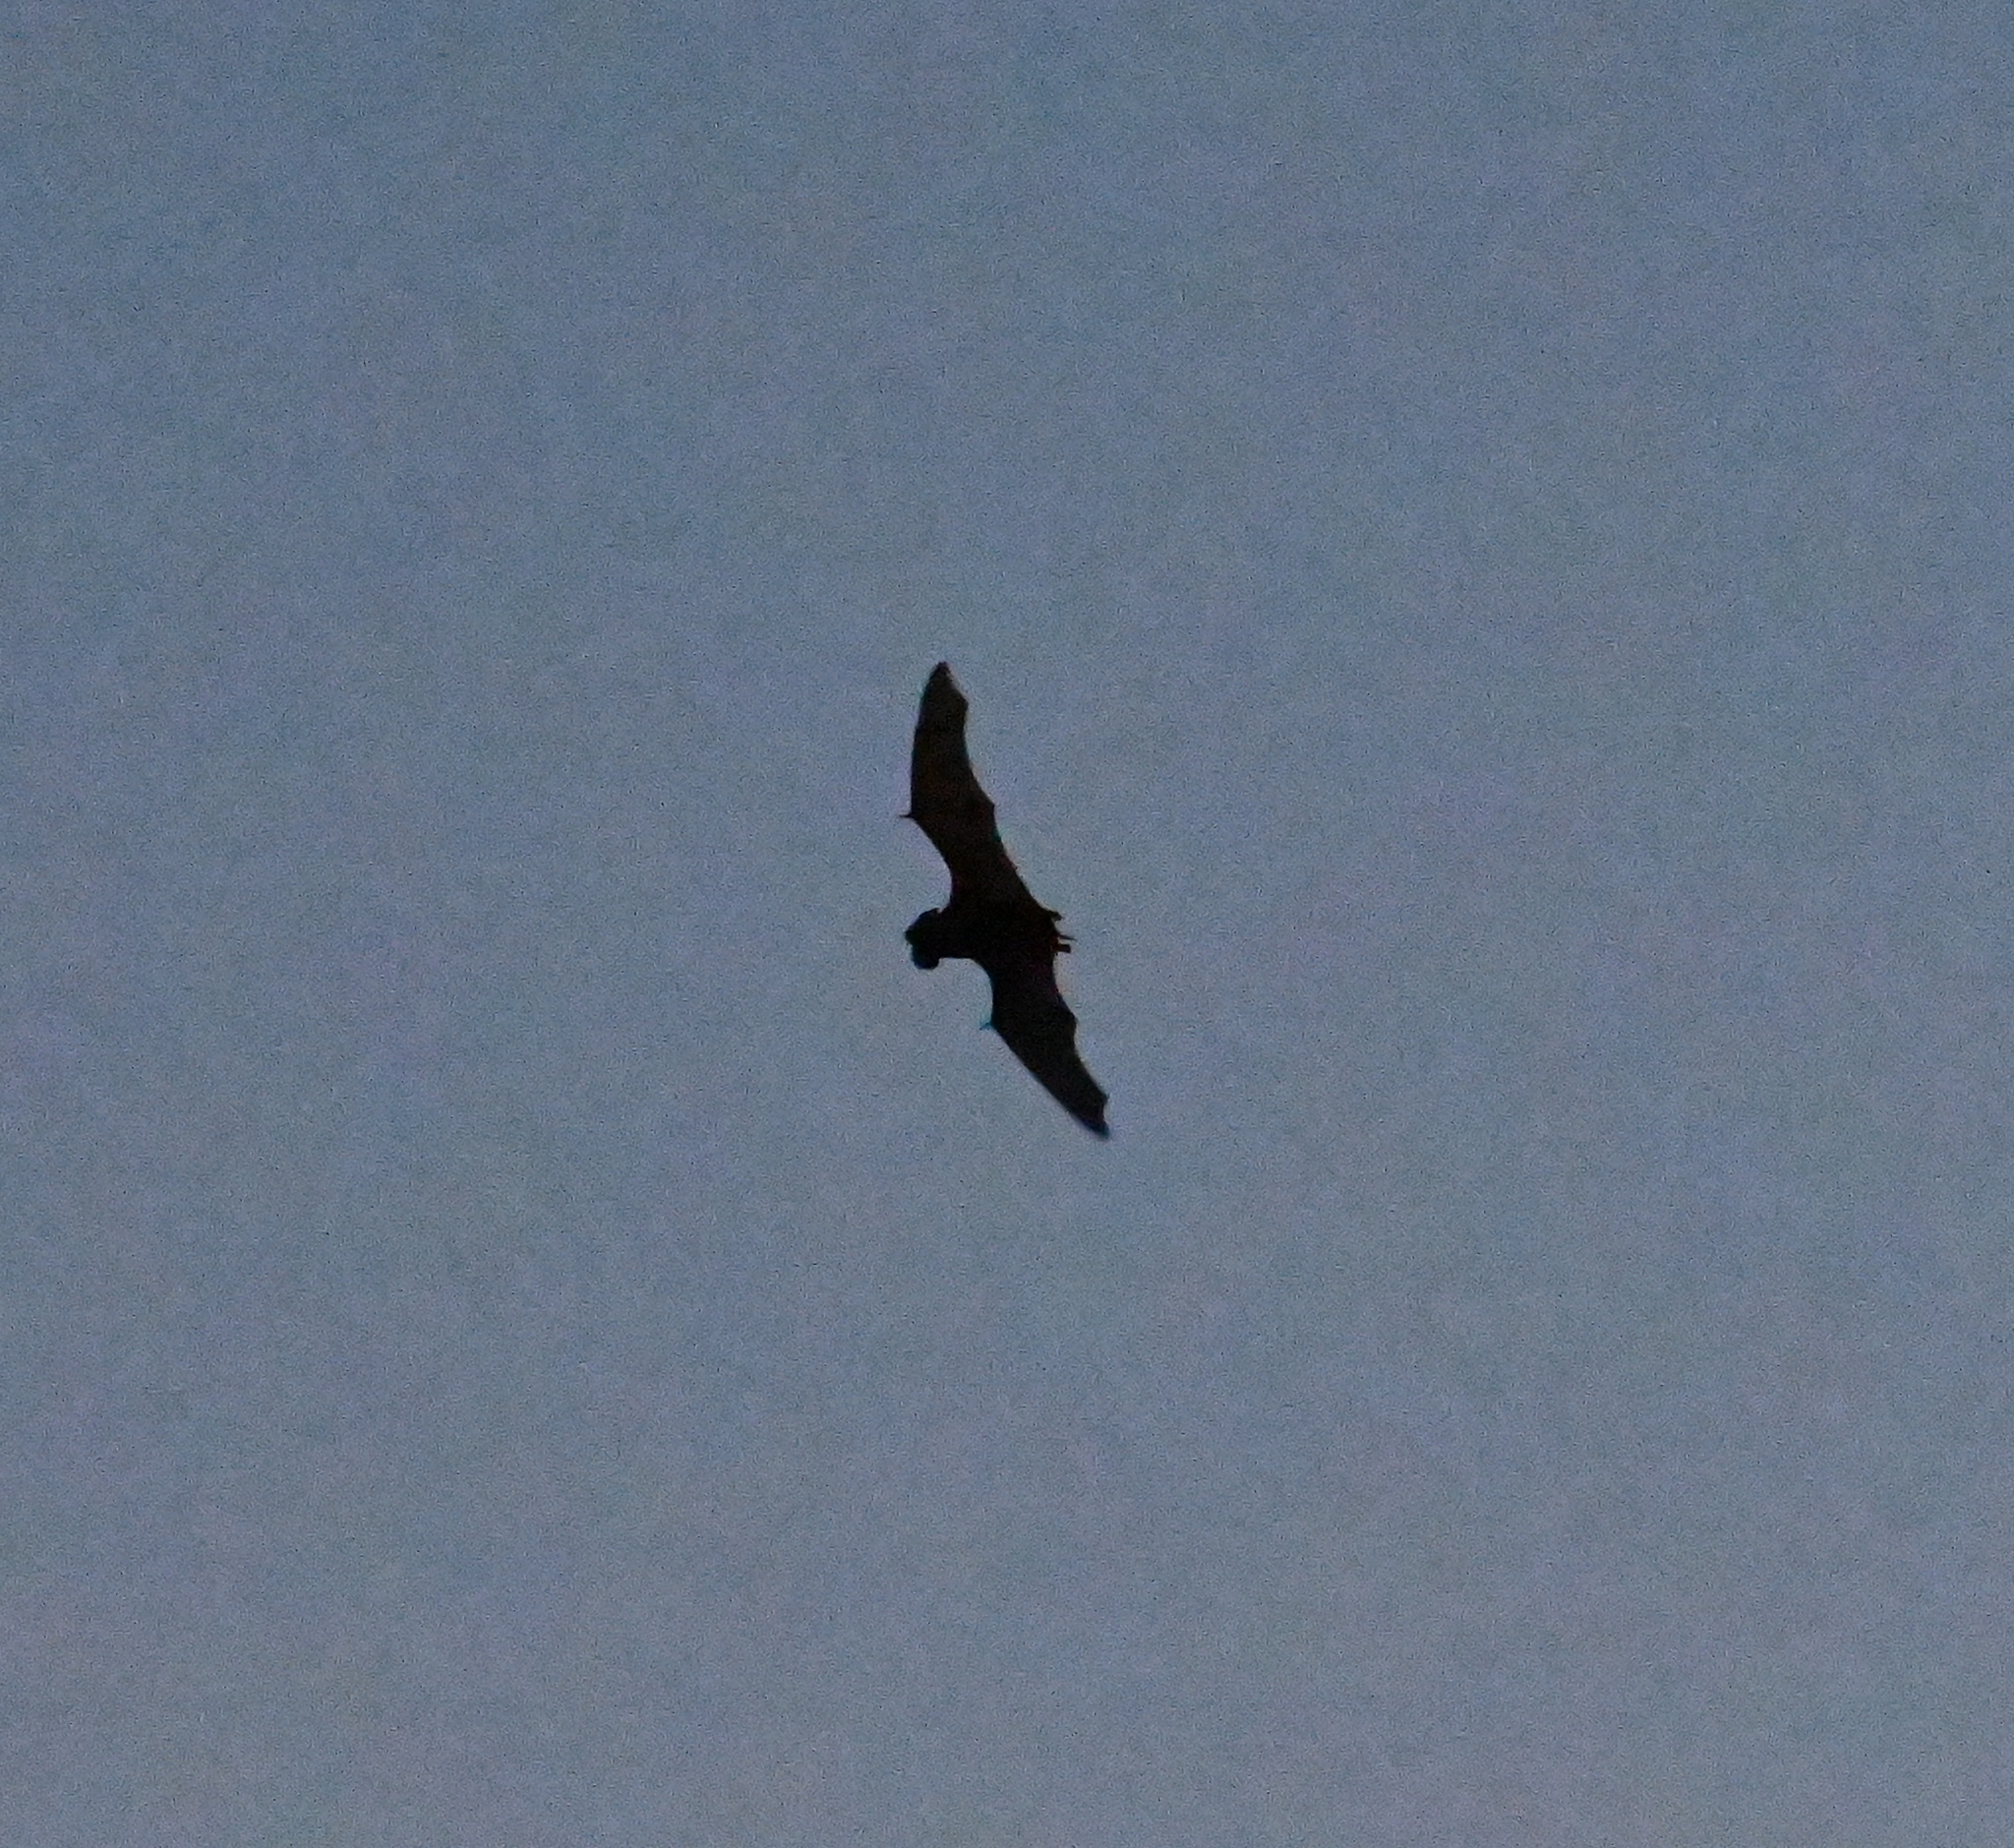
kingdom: Animalia
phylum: Chordata
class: Mammalia
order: Chiroptera
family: Molossidae
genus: Tadarida
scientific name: Tadarida brasiliensis
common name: Mexican free-tailed bat
